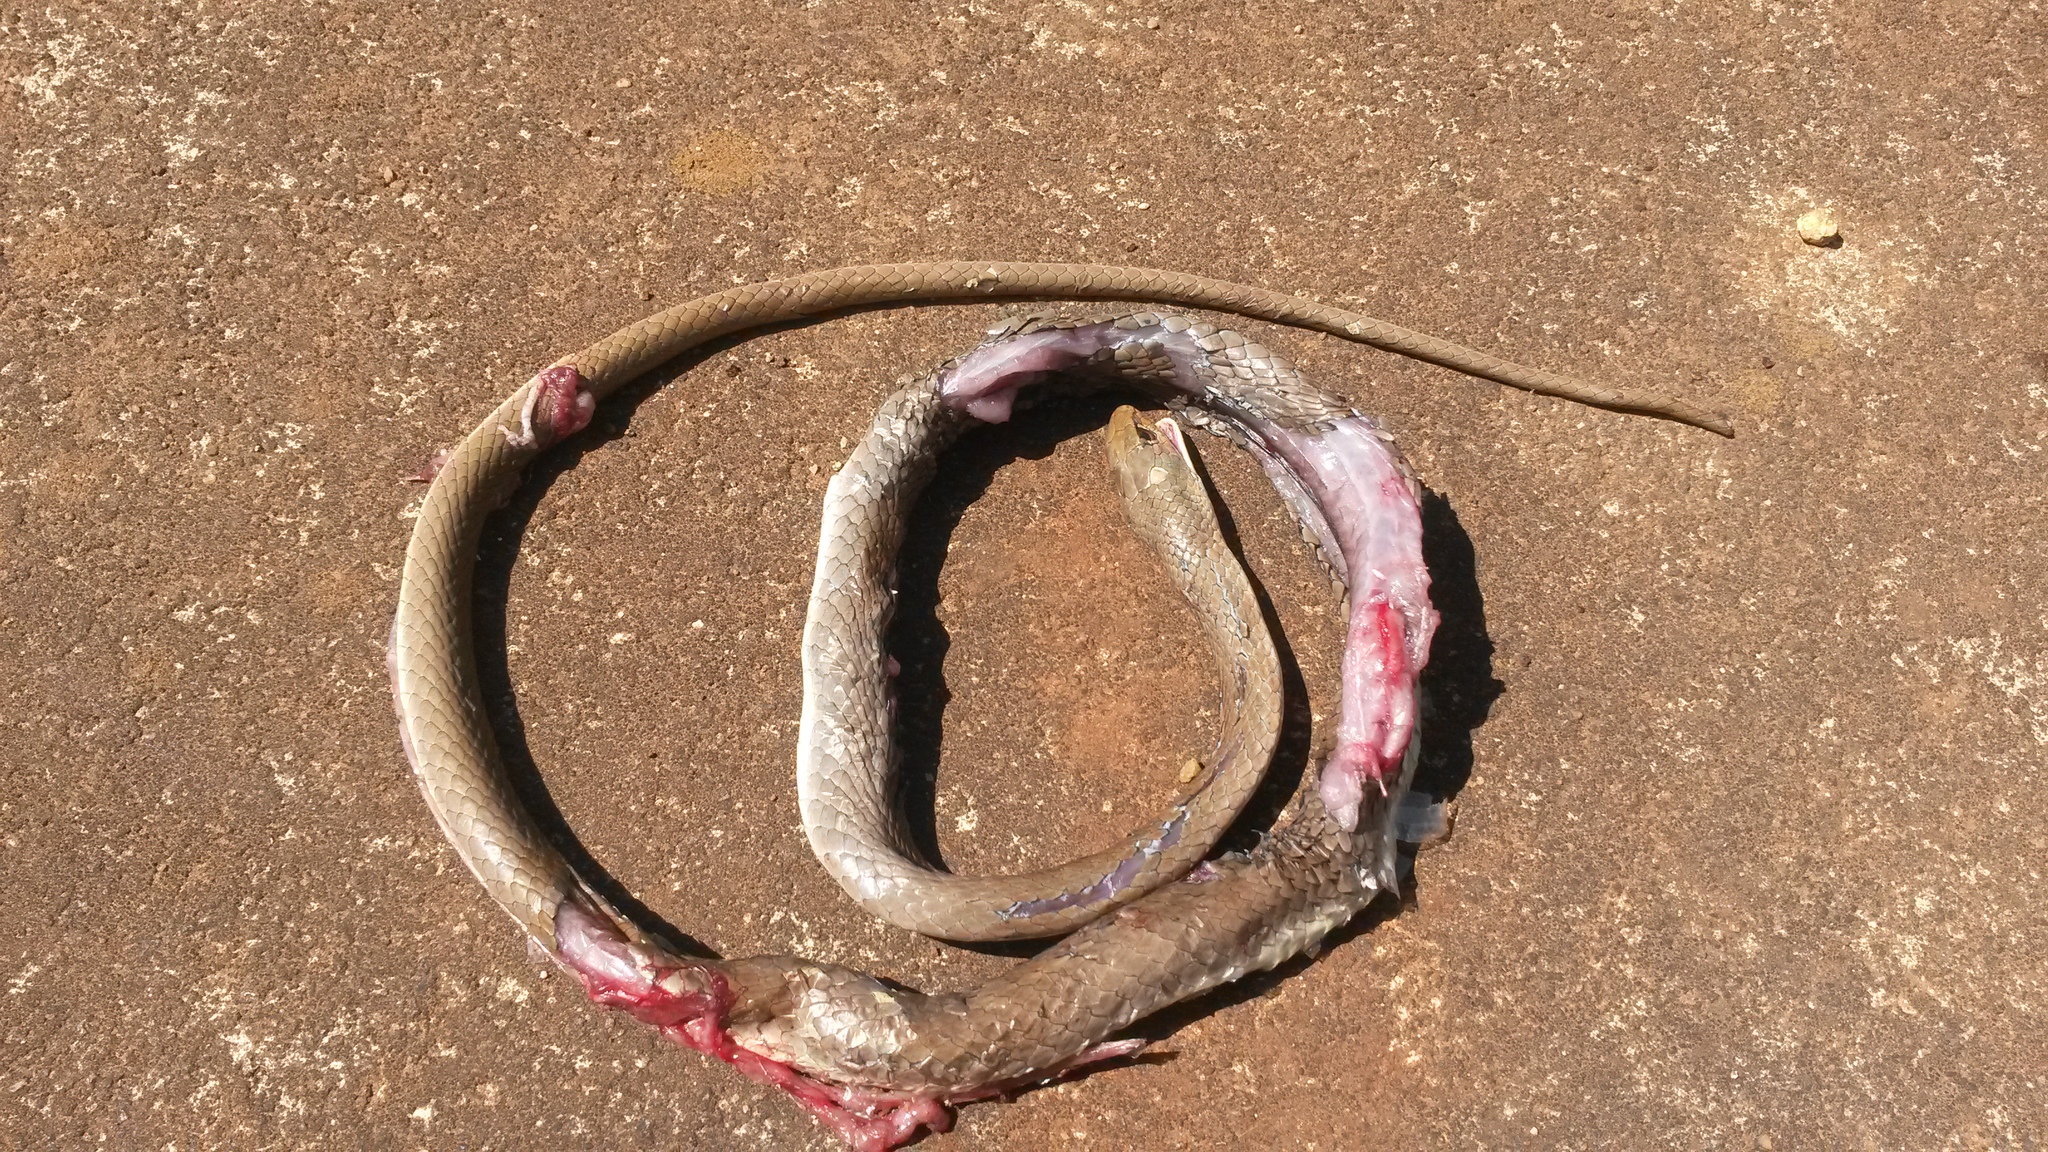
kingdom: Animalia
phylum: Chordata
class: Squamata
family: Psammophiidae
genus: Psammophis
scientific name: Psammophis mossambicus
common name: Olive grass snake
